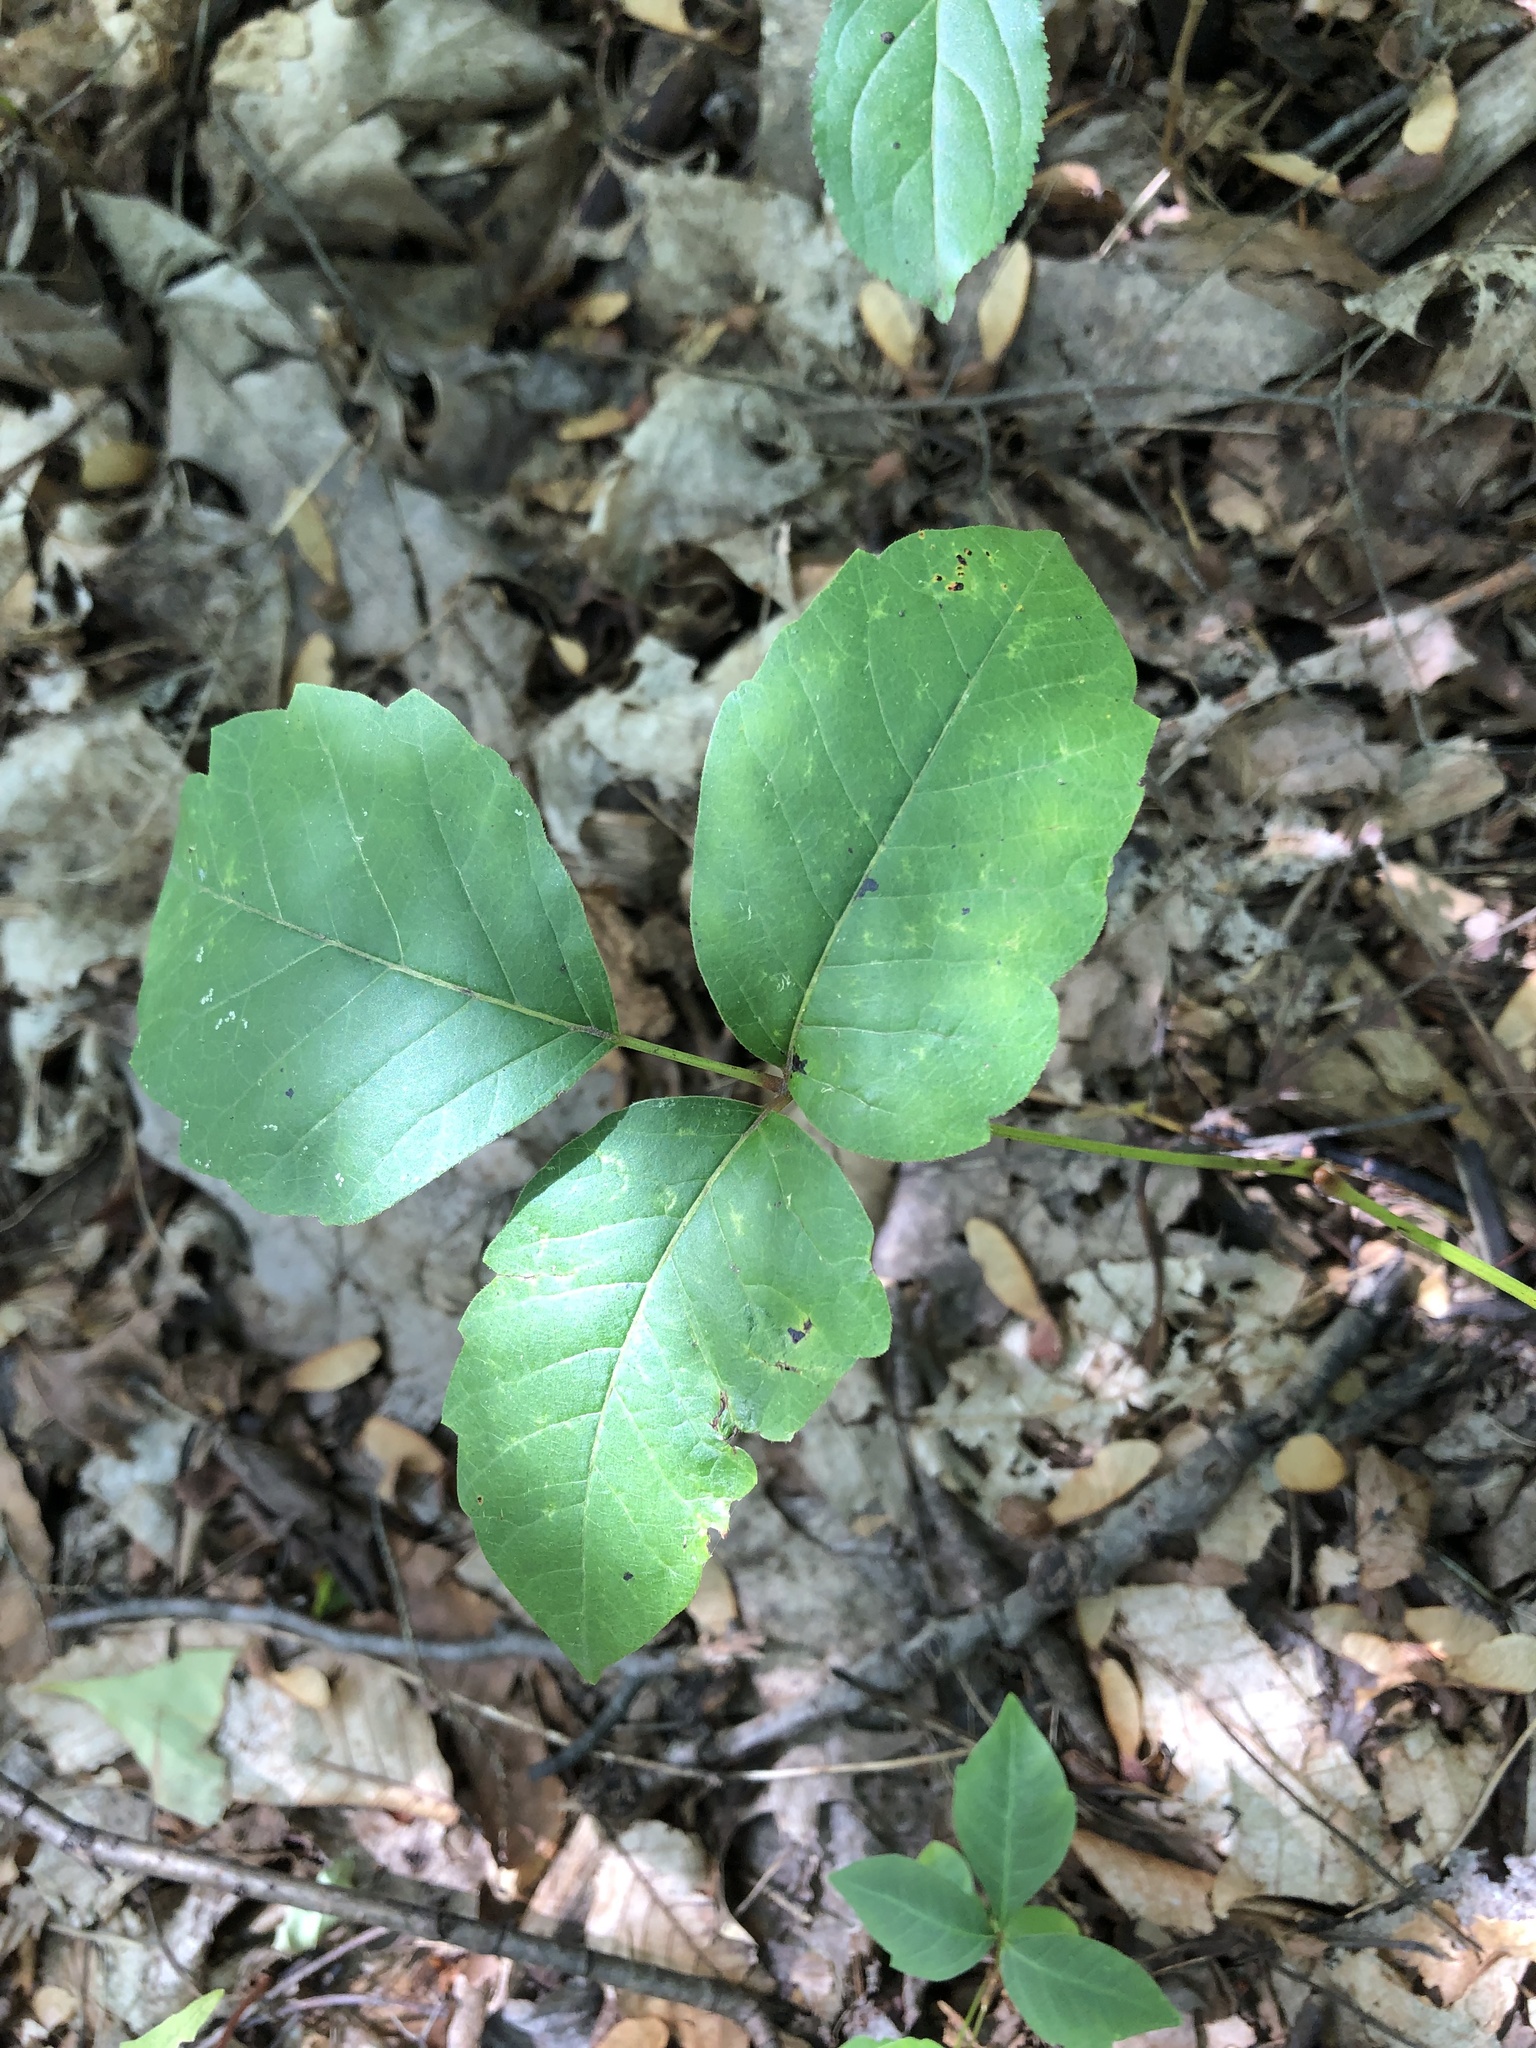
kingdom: Plantae
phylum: Tracheophyta
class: Magnoliopsida
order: Sapindales
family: Anacardiaceae
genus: Toxicodendron
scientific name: Toxicodendron rydbergii
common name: Rydberg's poison-ivy
